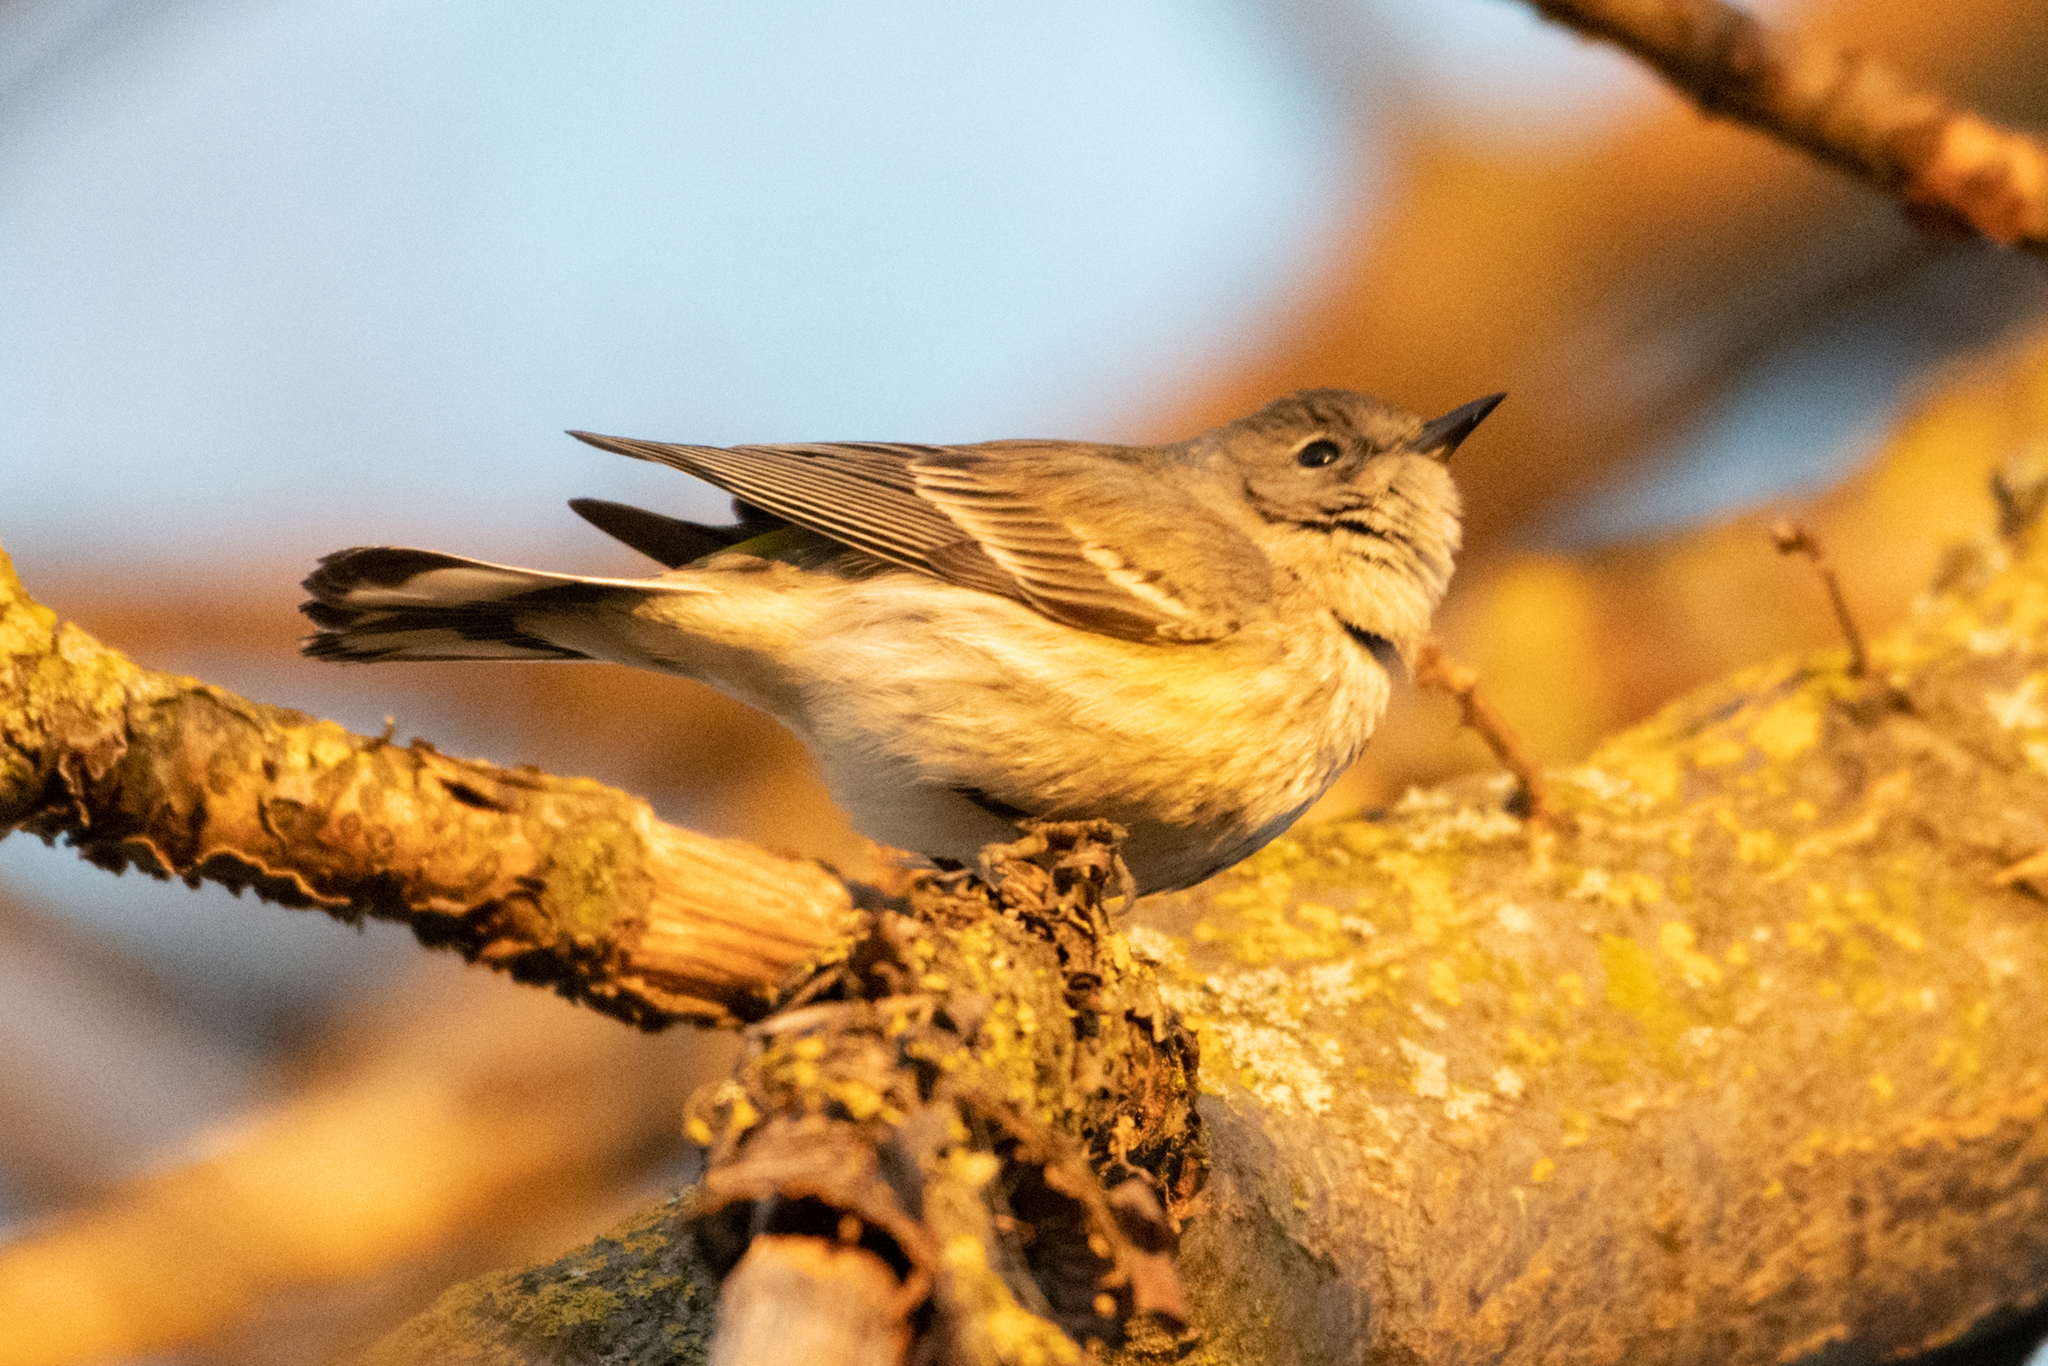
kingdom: Animalia
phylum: Chordata
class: Aves
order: Passeriformes
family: Parulidae
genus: Setophaga
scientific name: Setophaga coronata
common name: Myrtle warbler
